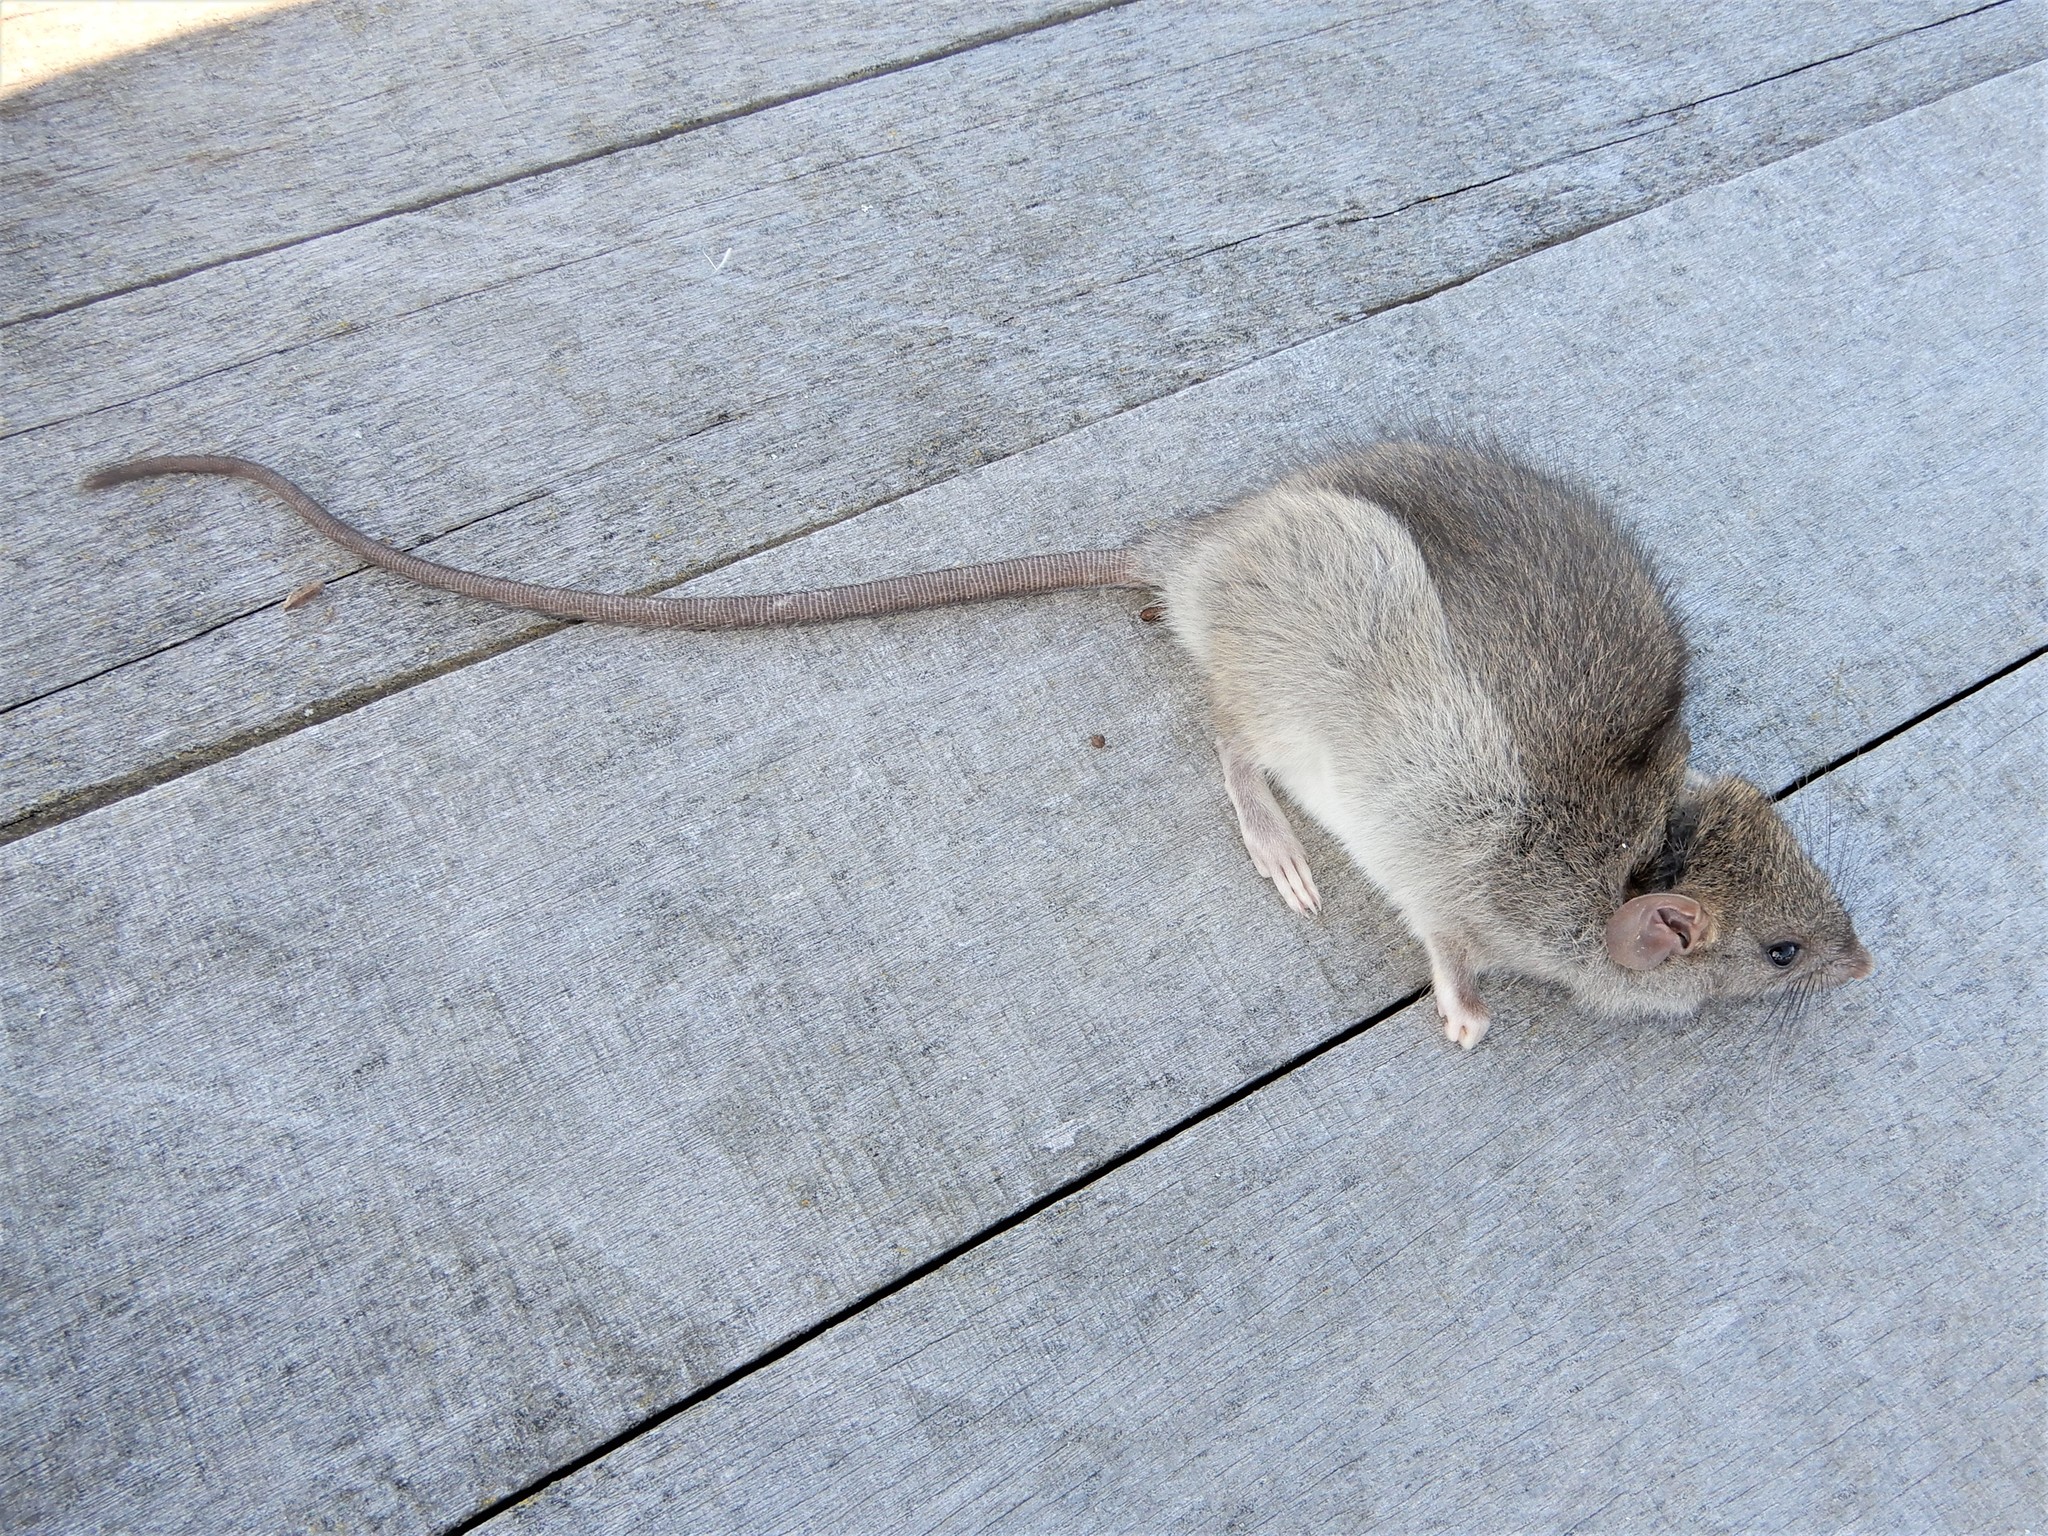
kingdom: Animalia
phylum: Chordata
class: Mammalia
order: Rodentia
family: Muridae
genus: Rattus
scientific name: Rattus rattus
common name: Black rat
